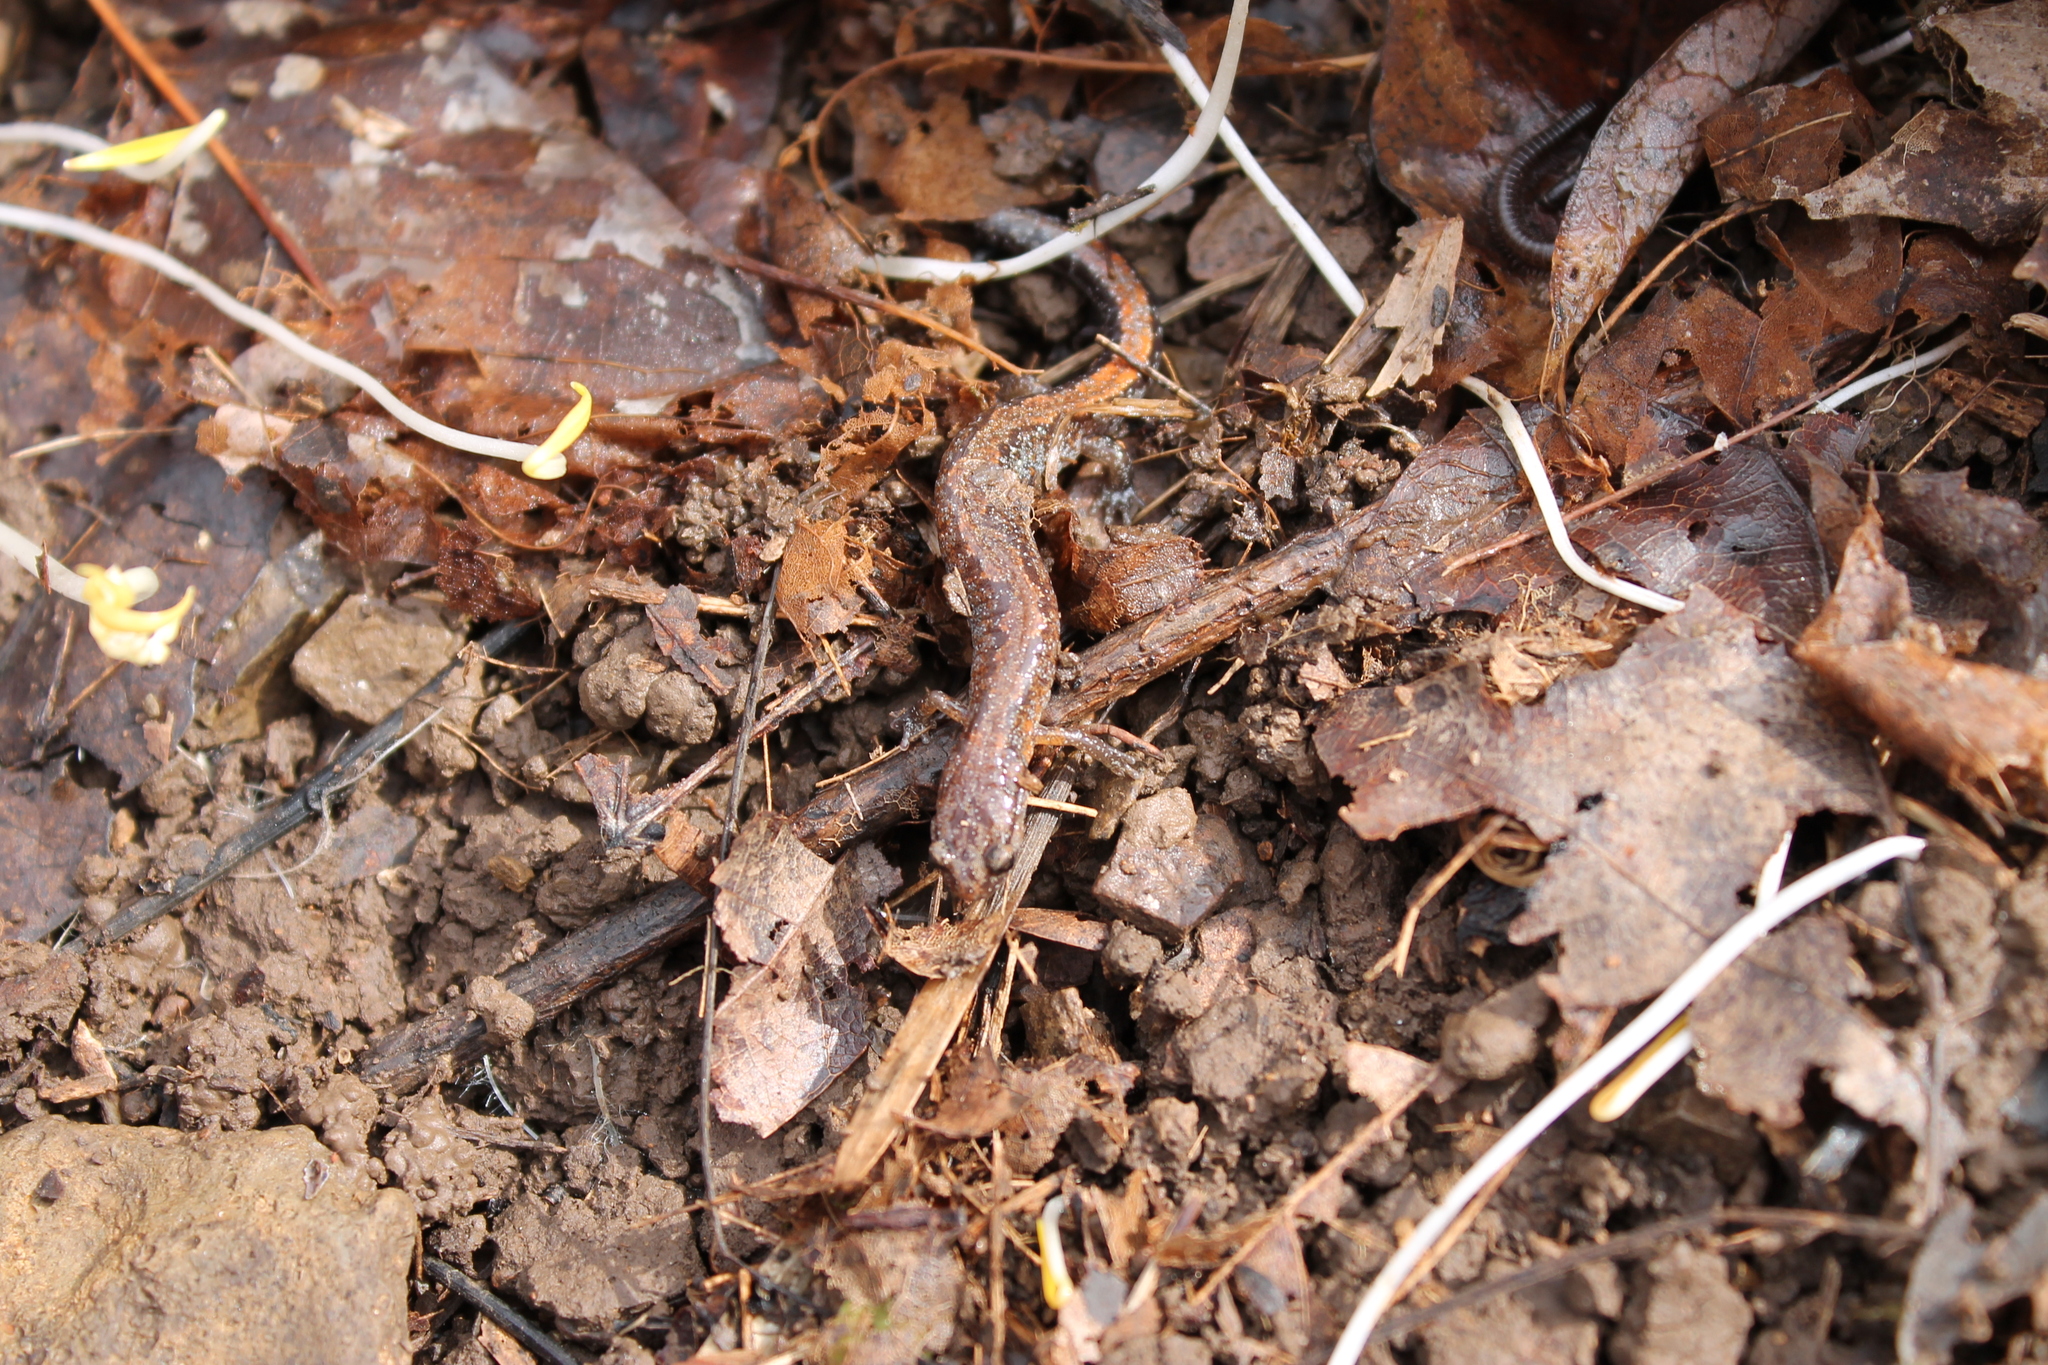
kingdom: Animalia
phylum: Chordata
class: Amphibia
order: Caudata
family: Plethodontidae
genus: Plethodon
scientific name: Plethodon dorsalis
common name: Northern zigzag salamander
